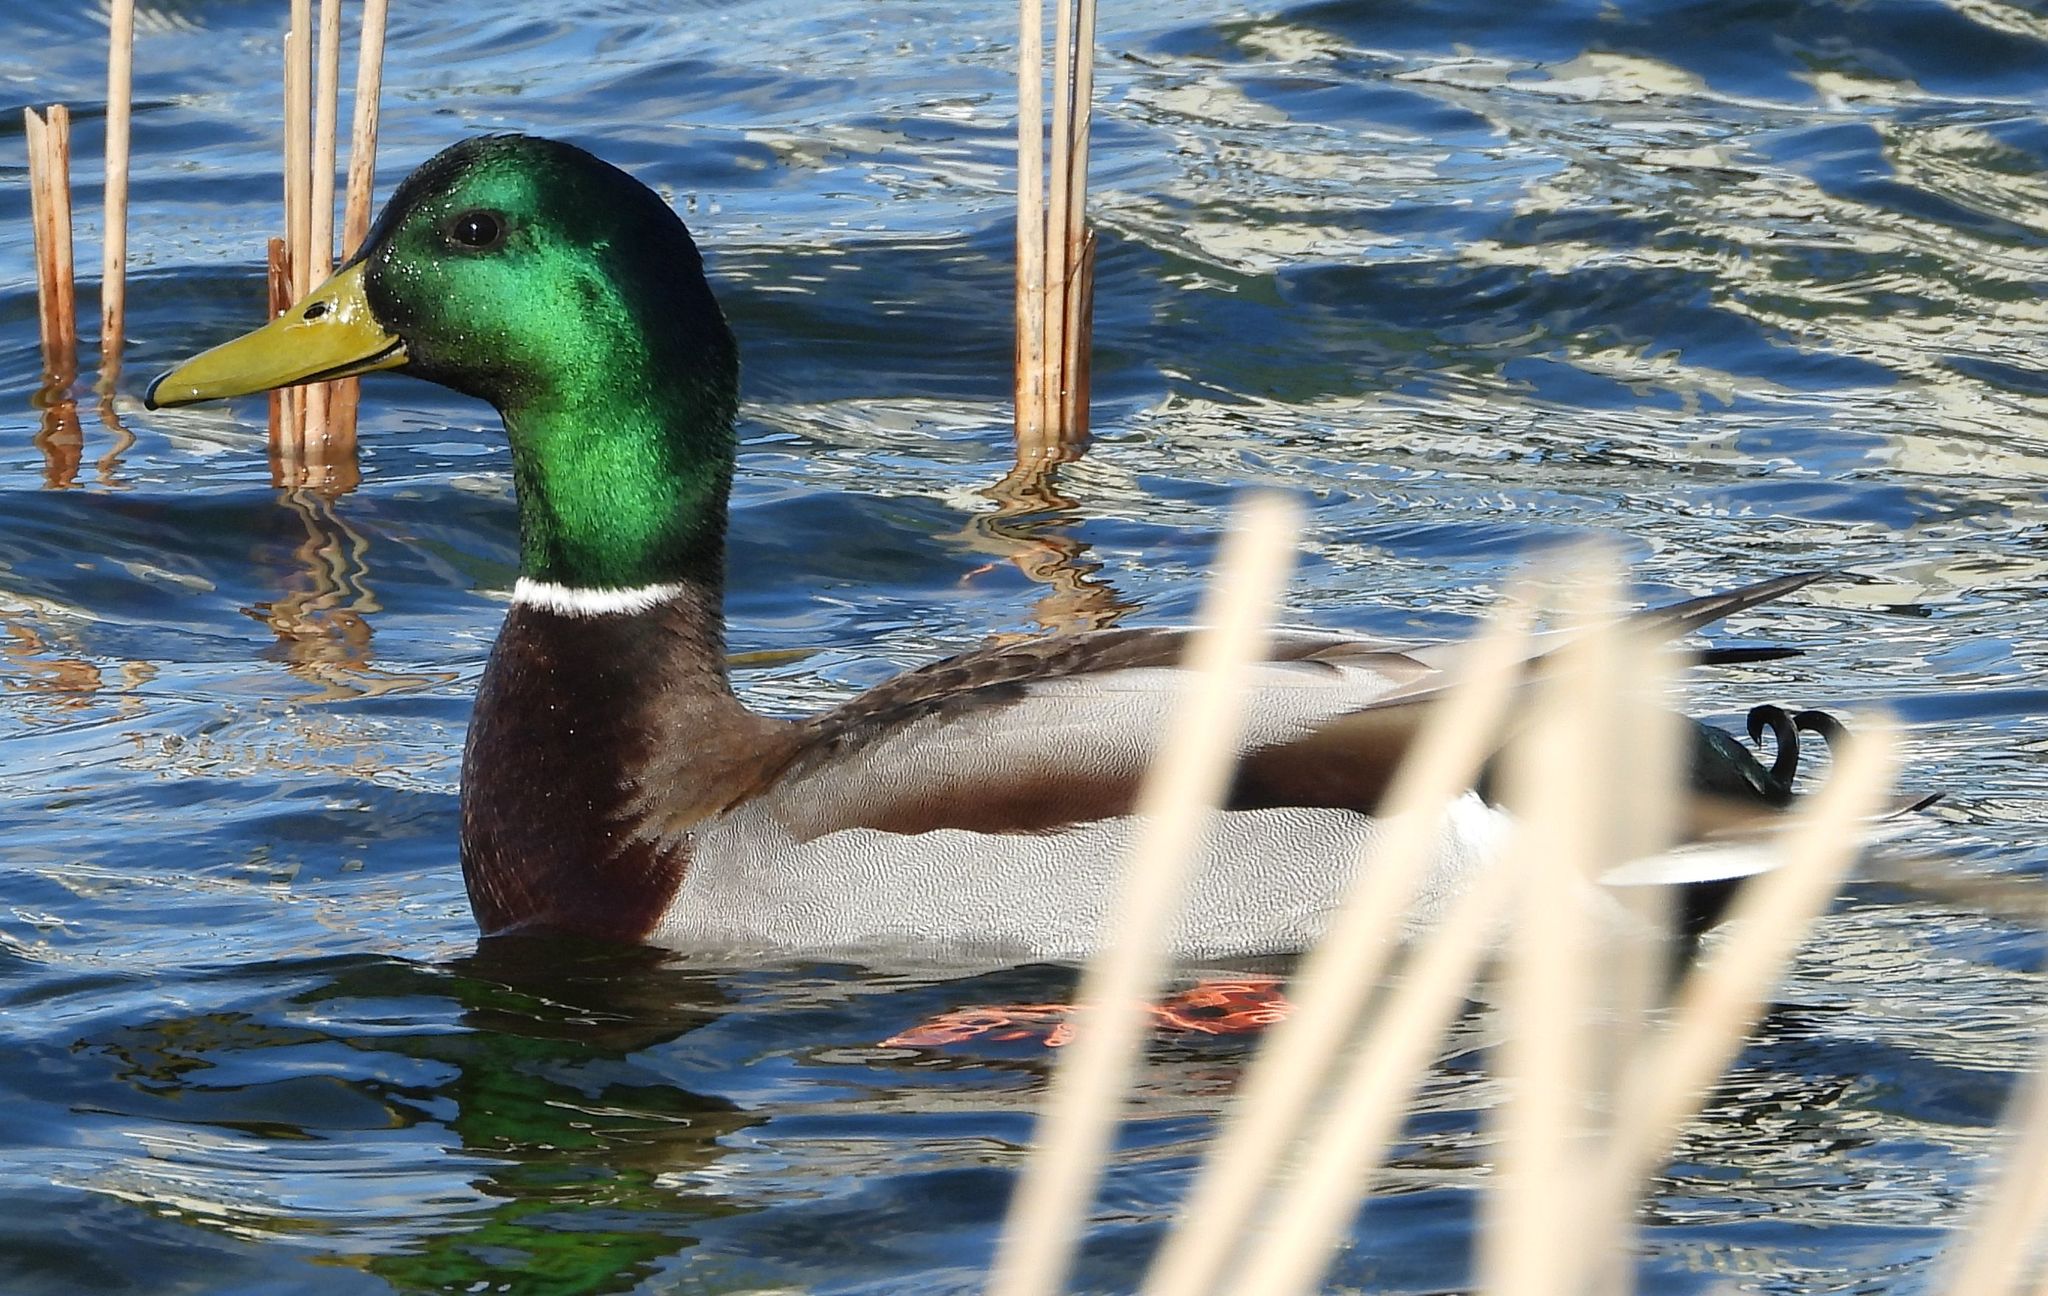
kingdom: Animalia
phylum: Chordata
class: Aves
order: Anseriformes
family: Anatidae
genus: Anas
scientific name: Anas platyrhynchos
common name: Mallard
